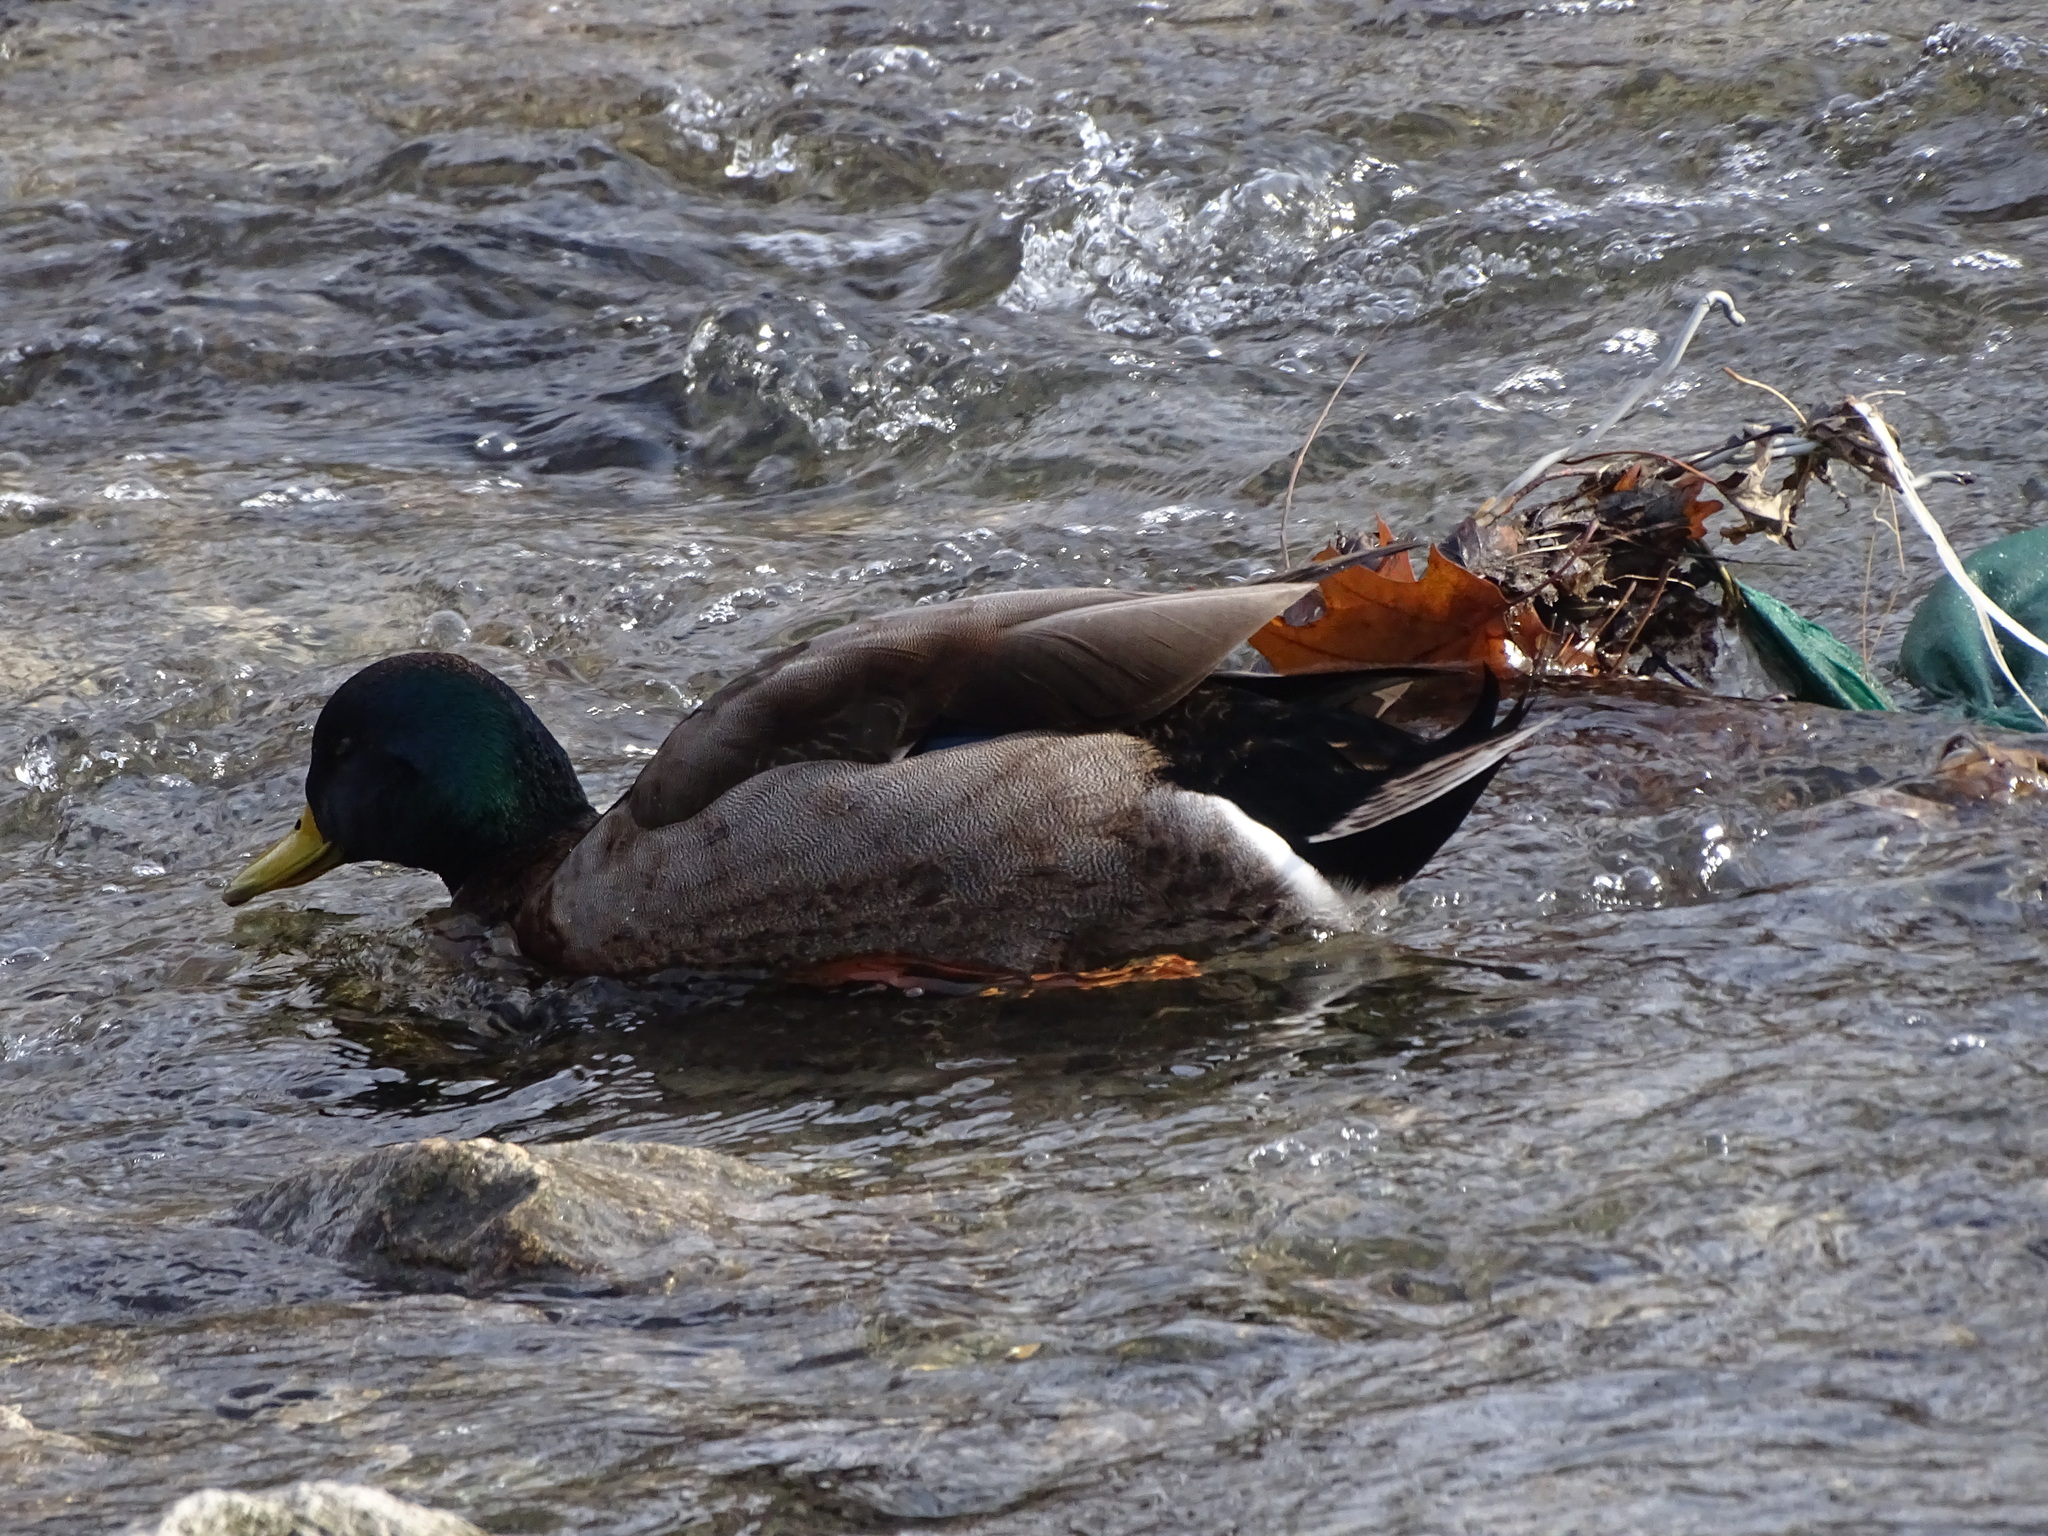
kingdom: Animalia
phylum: Chordata
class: Aves
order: Anseriformes
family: Anatidae
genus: Anas
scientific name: Anas
